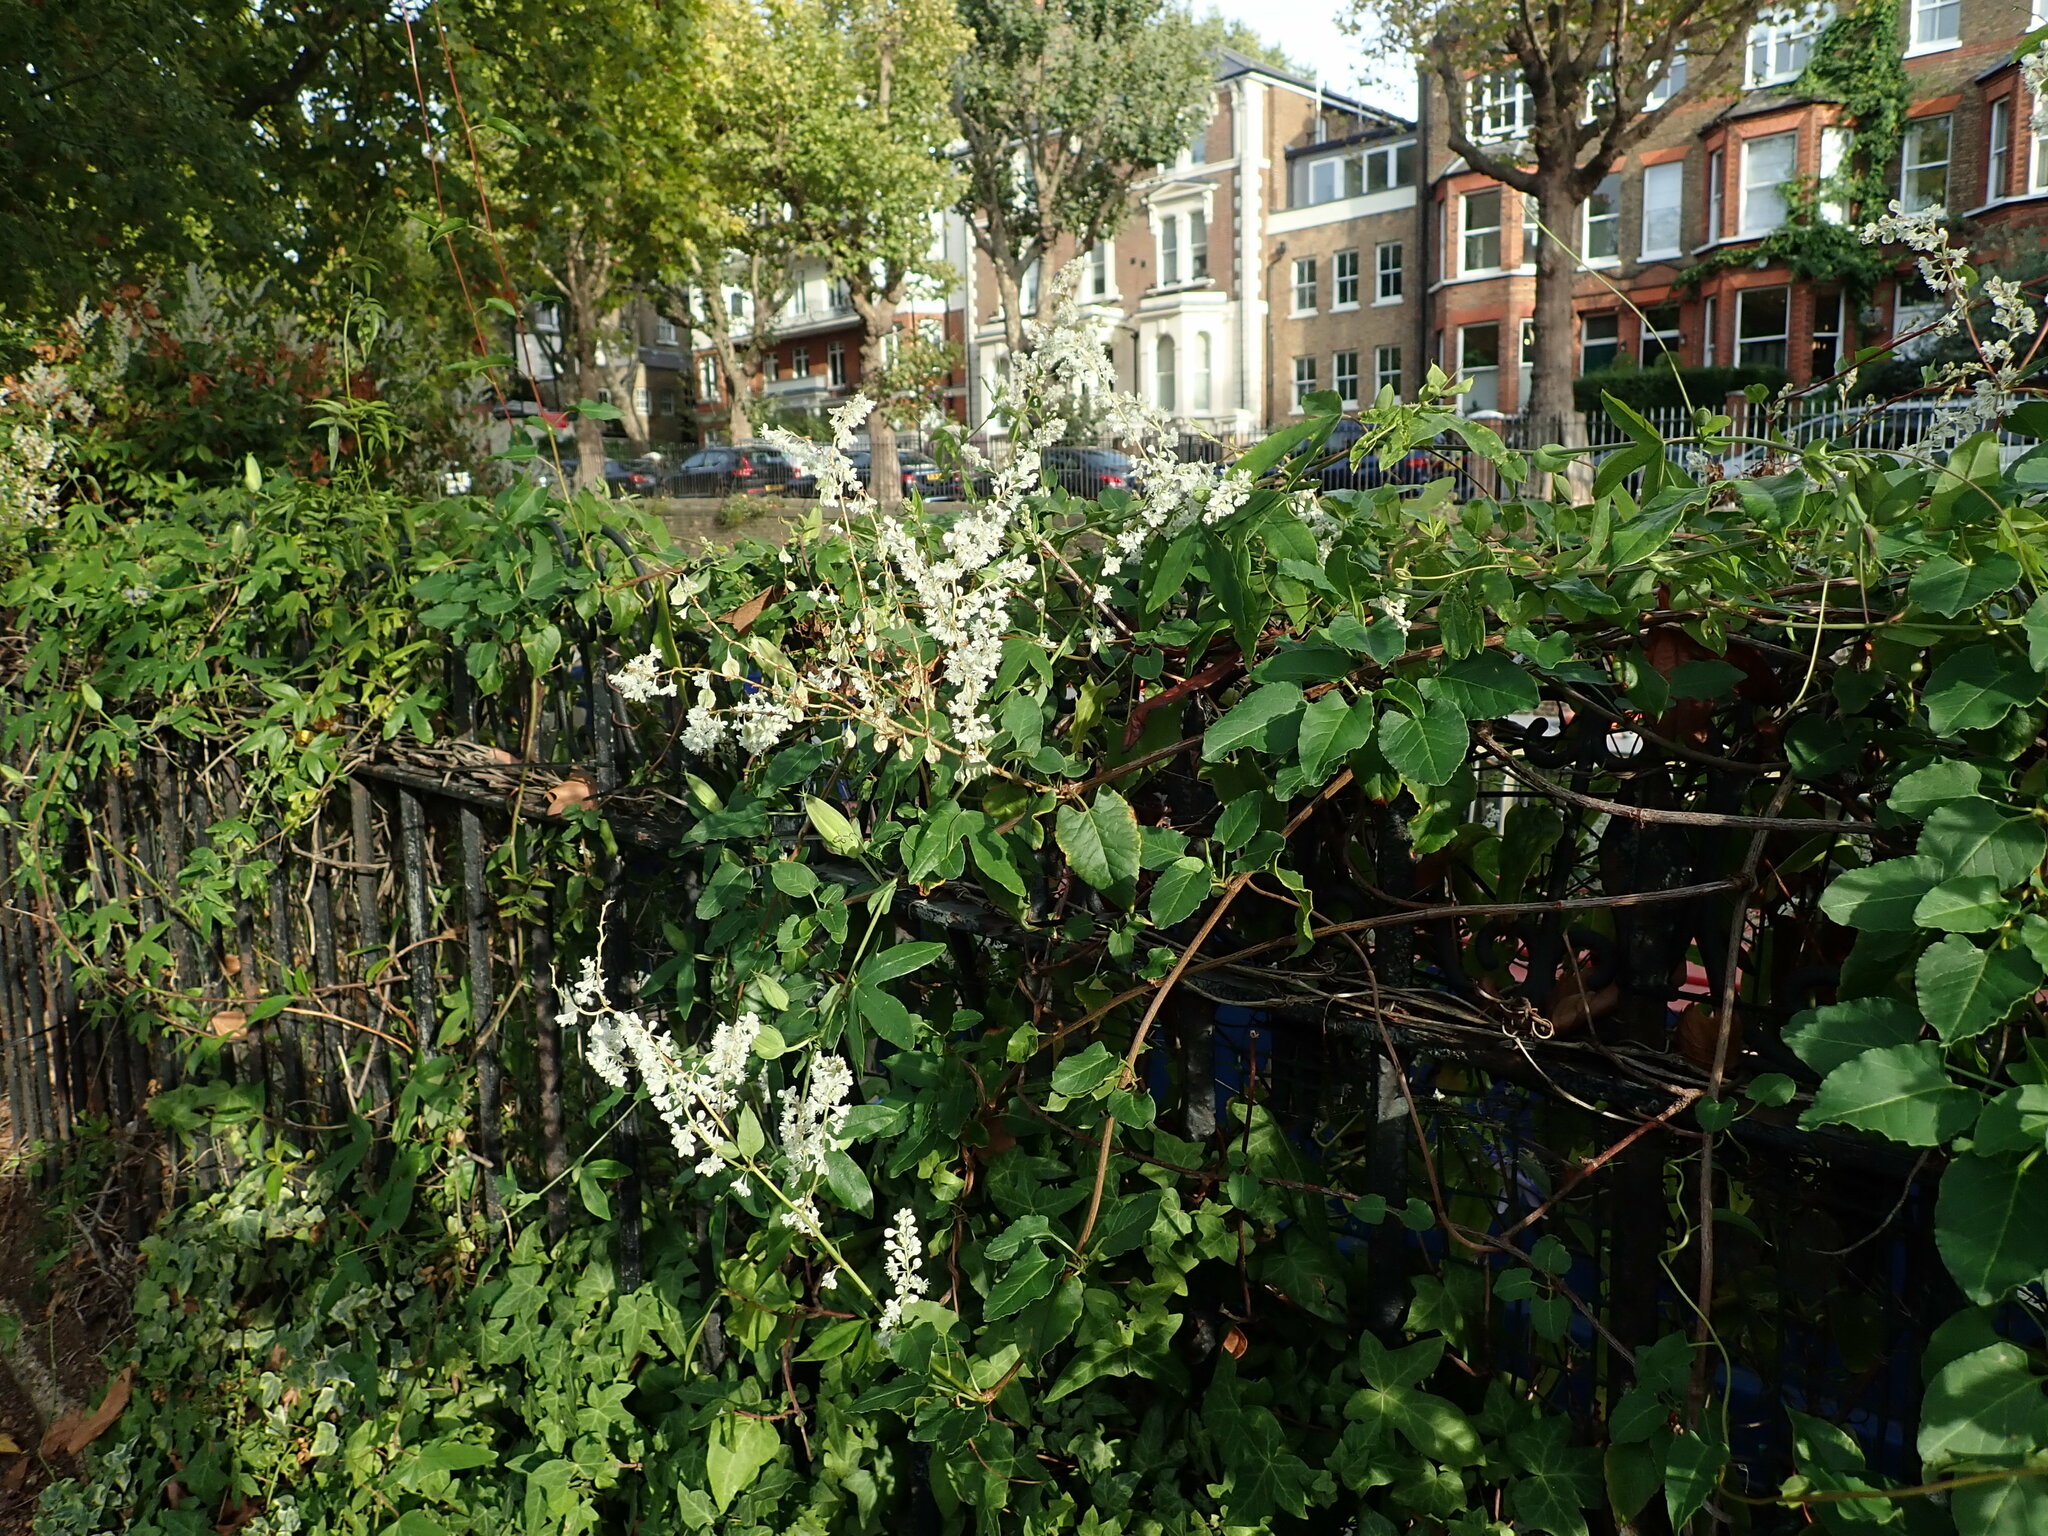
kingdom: Plantae
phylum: Tracheophyta
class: Magnoliopsida
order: Caryophyllales
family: Polygonaceae
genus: Fallopia
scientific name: Fallopia baldschuanica
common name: Russian-vine
